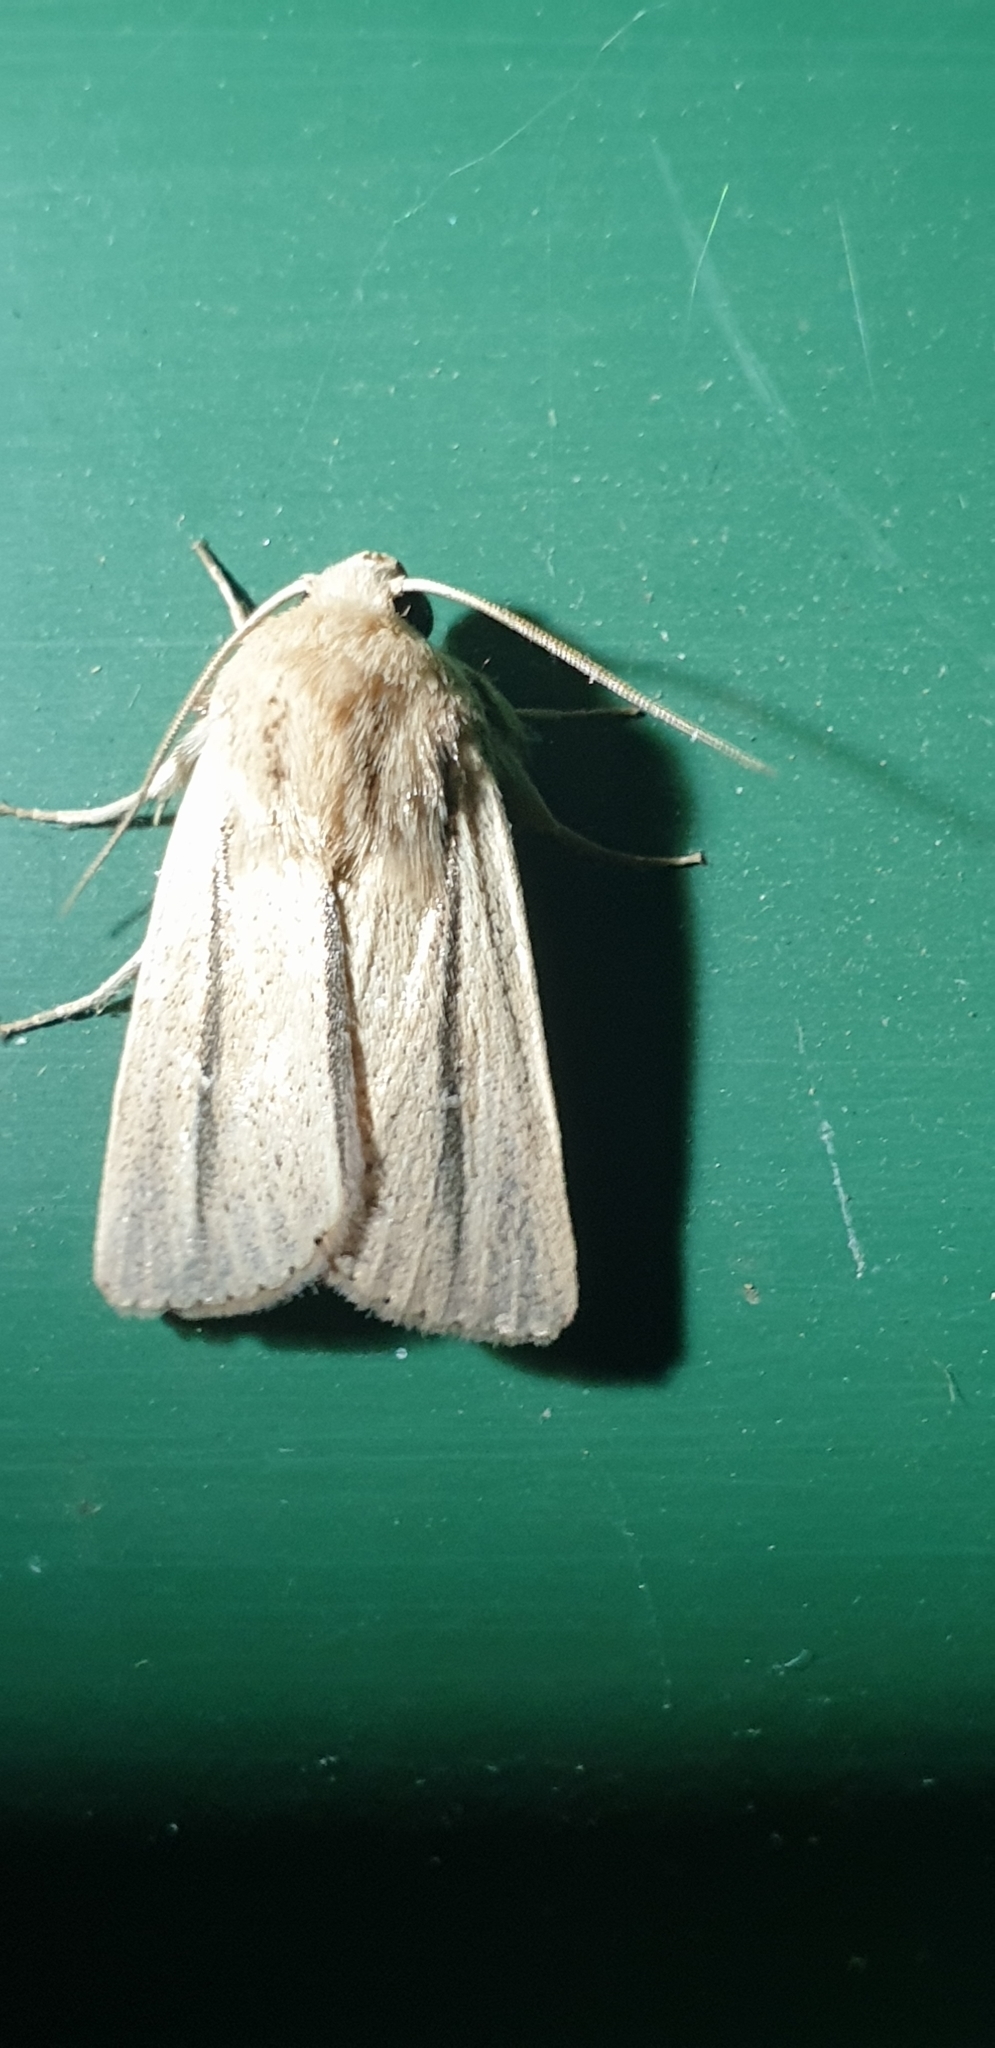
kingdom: Animalia
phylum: Arthropoda
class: Insecta
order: Lepidoptera
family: Noctuidae
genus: Leucania
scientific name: Leucania diatrecta
